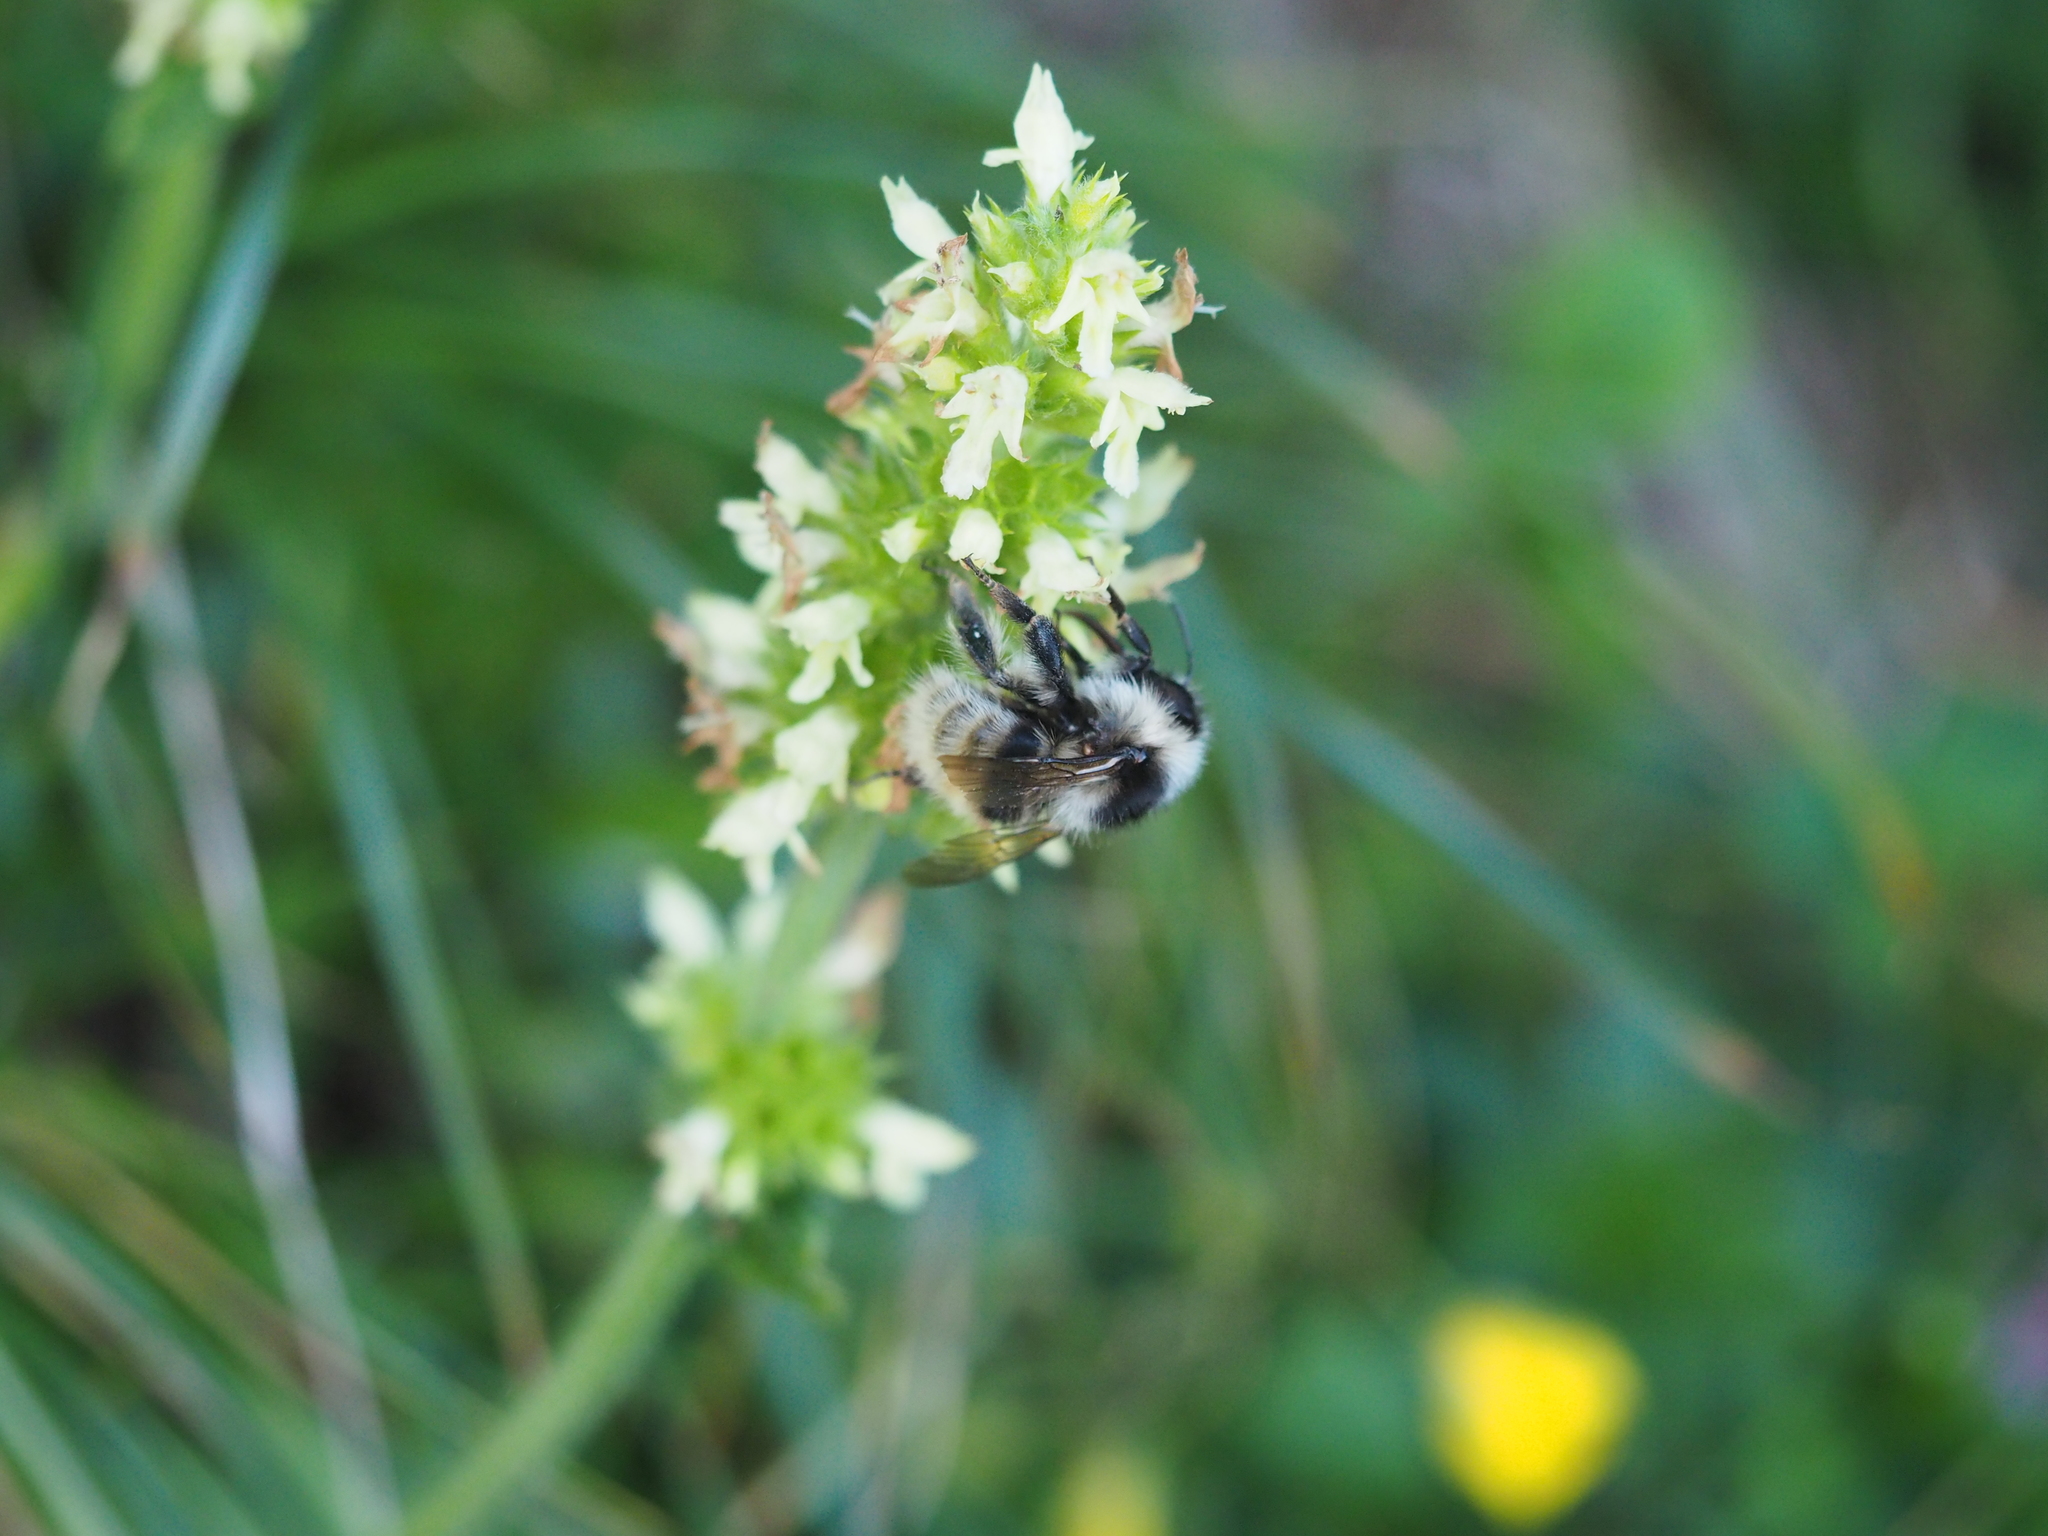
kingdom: Animalia
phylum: Arthropoda
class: Insecta
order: Hymenoptera
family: Apidae
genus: Bombus
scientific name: Bombus mucidus
